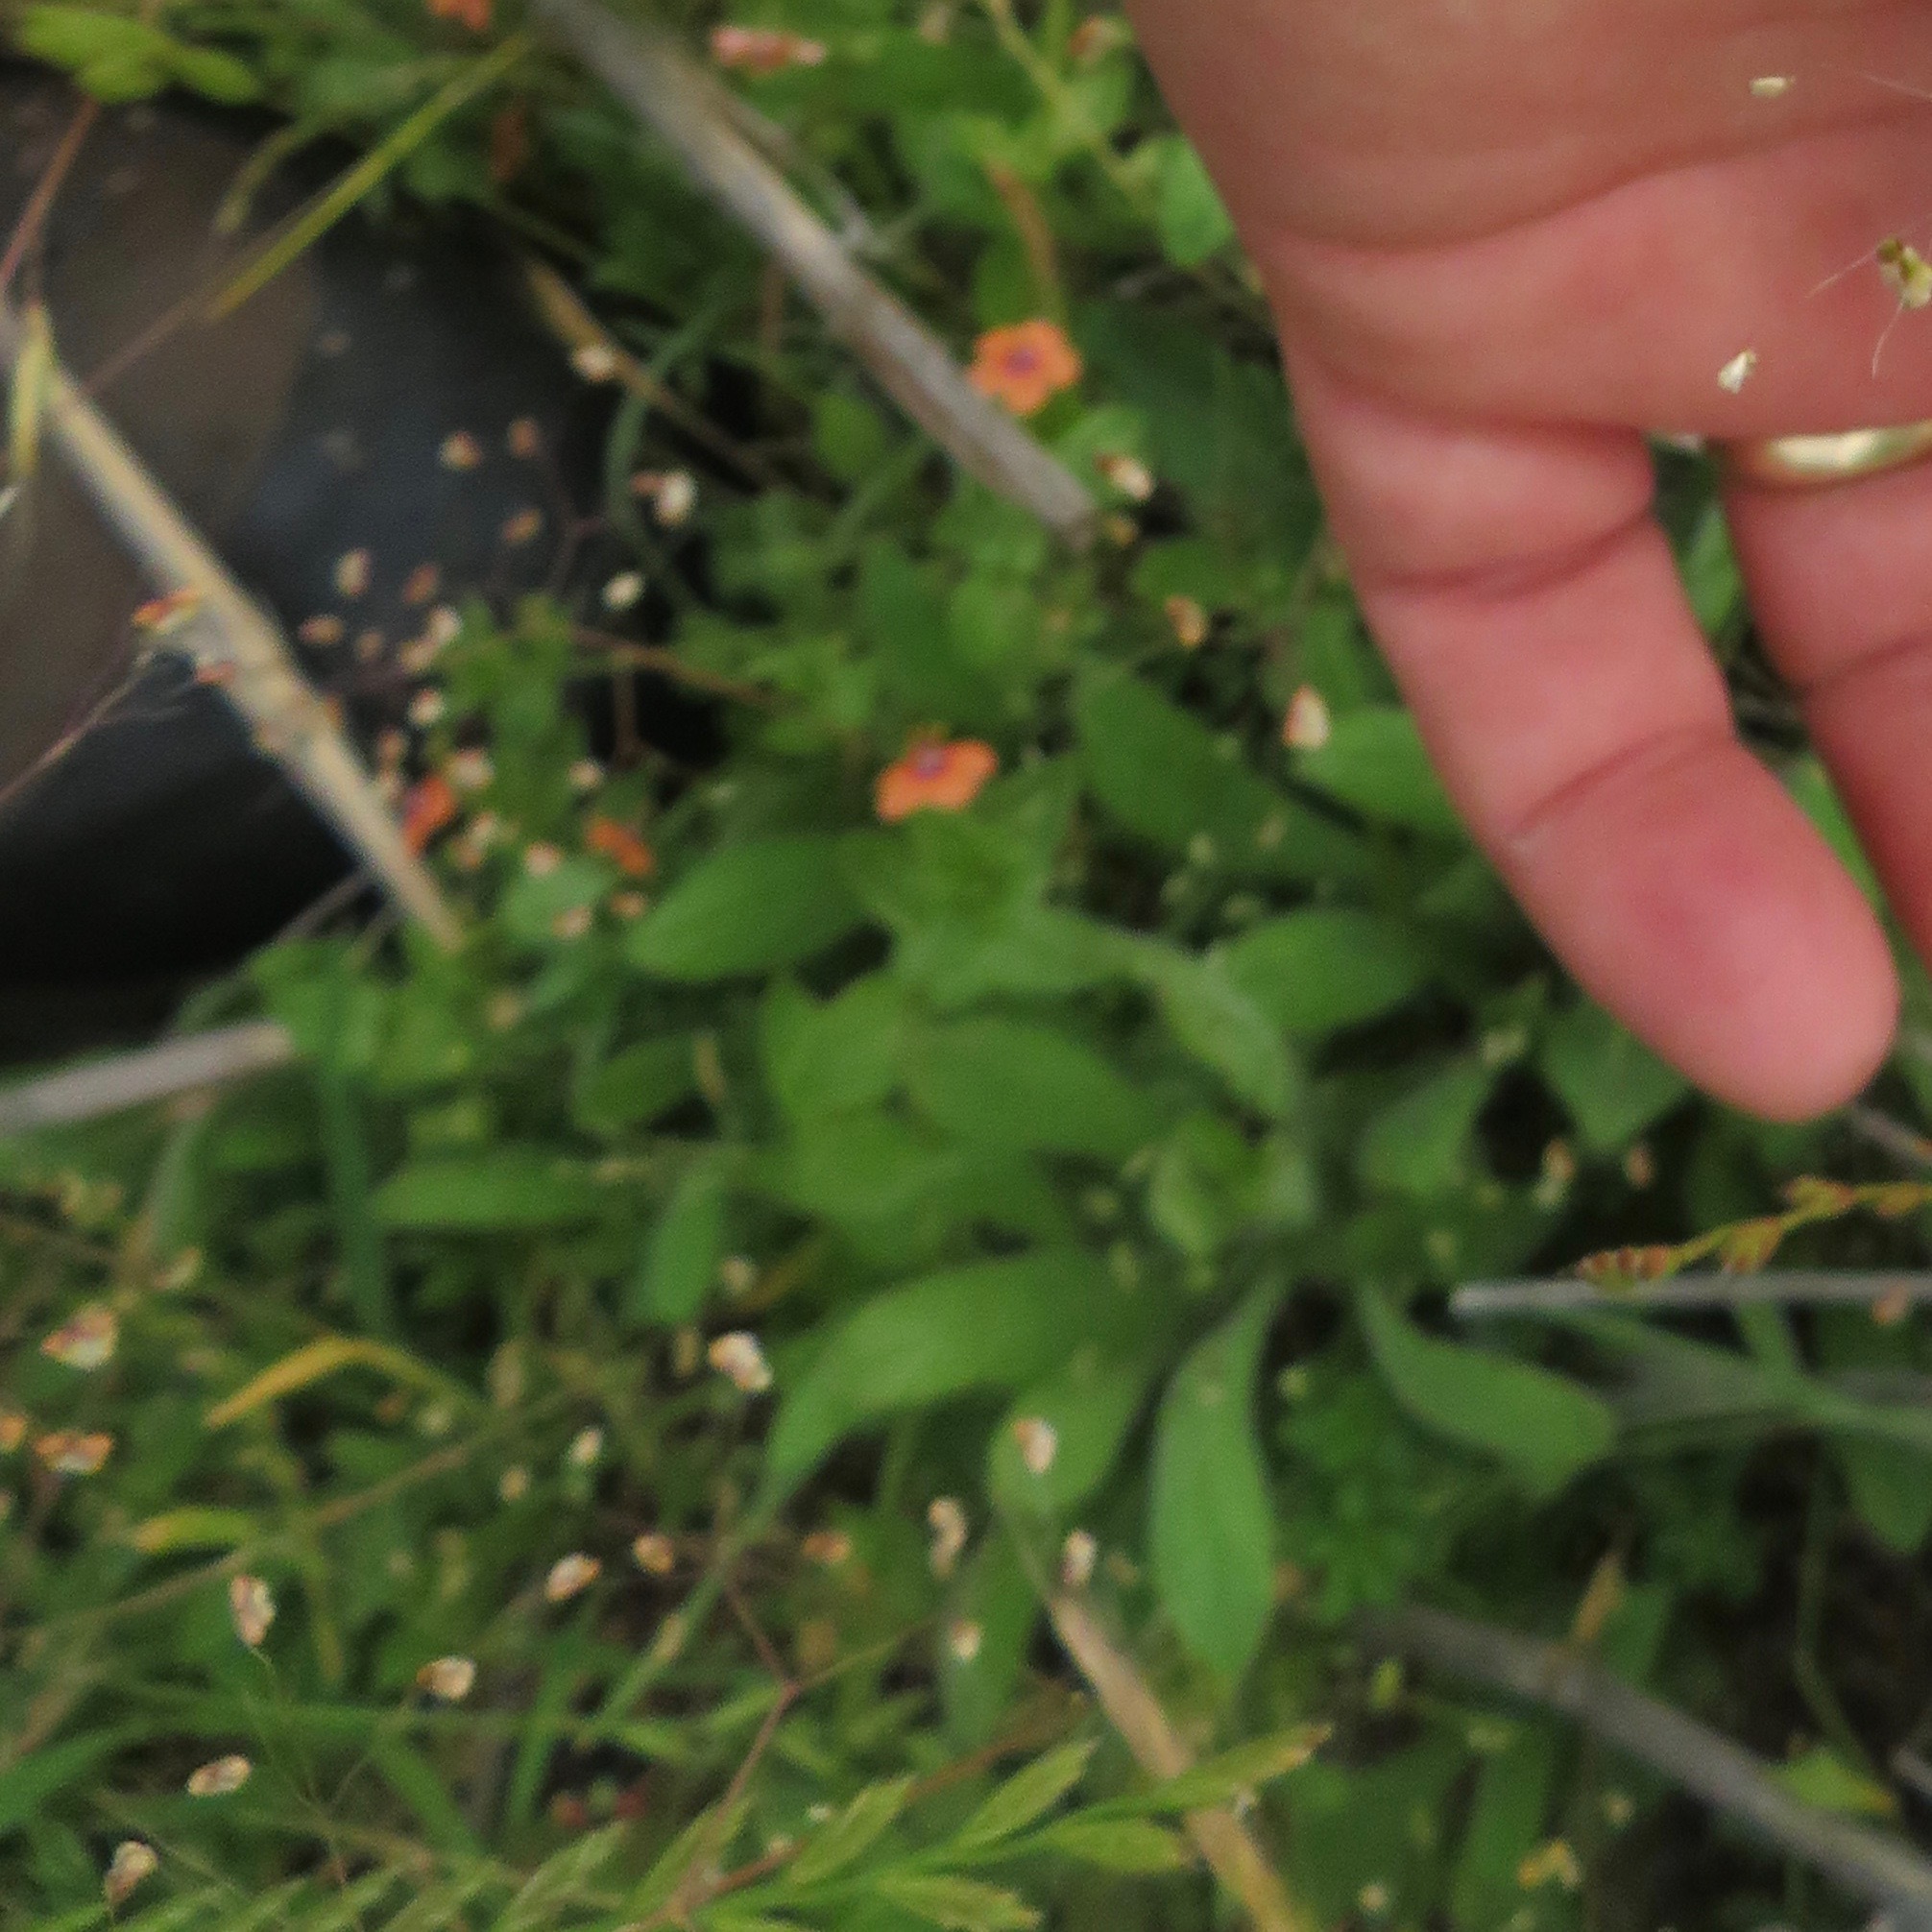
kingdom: Plantae
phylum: Tracheophyta
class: Magnoliopsida
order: Ericales
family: Primulaceae
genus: Lysimachia
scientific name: Lysimachia arvensis
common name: Scarlet pimpernel
